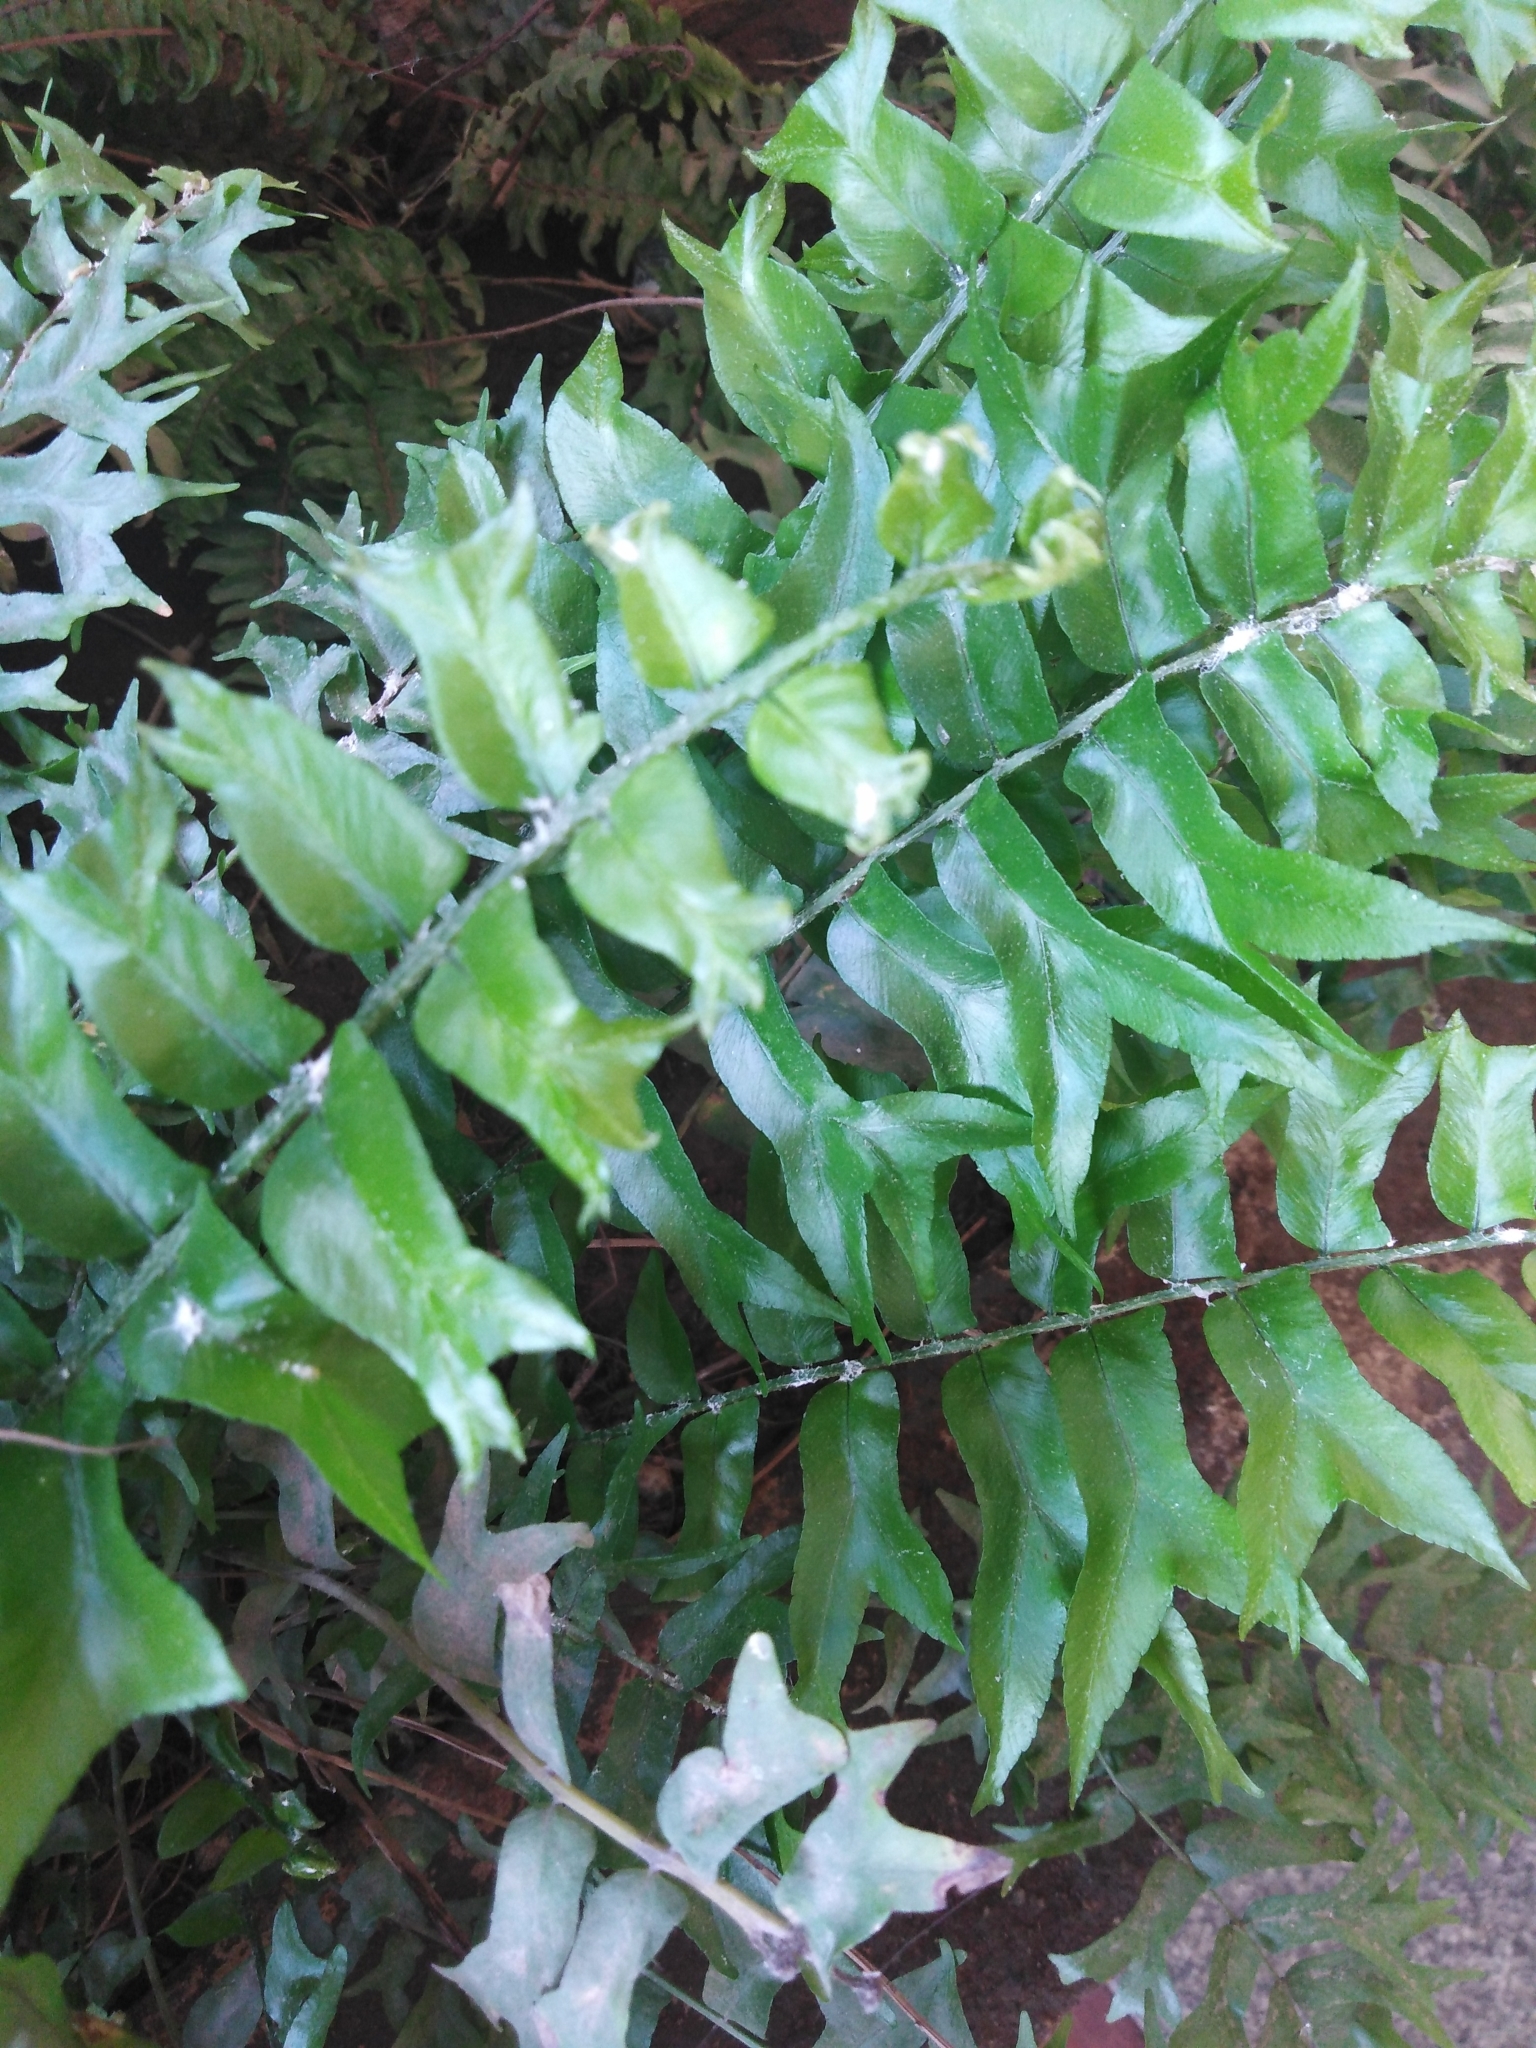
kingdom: Plantae
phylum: Tracheophyta
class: Polypodiopsida
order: Polypodiales
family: Nephrolepidaceae
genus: Nephrolepis
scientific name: Nephrolepis falcata
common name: Fishtail swordfern
